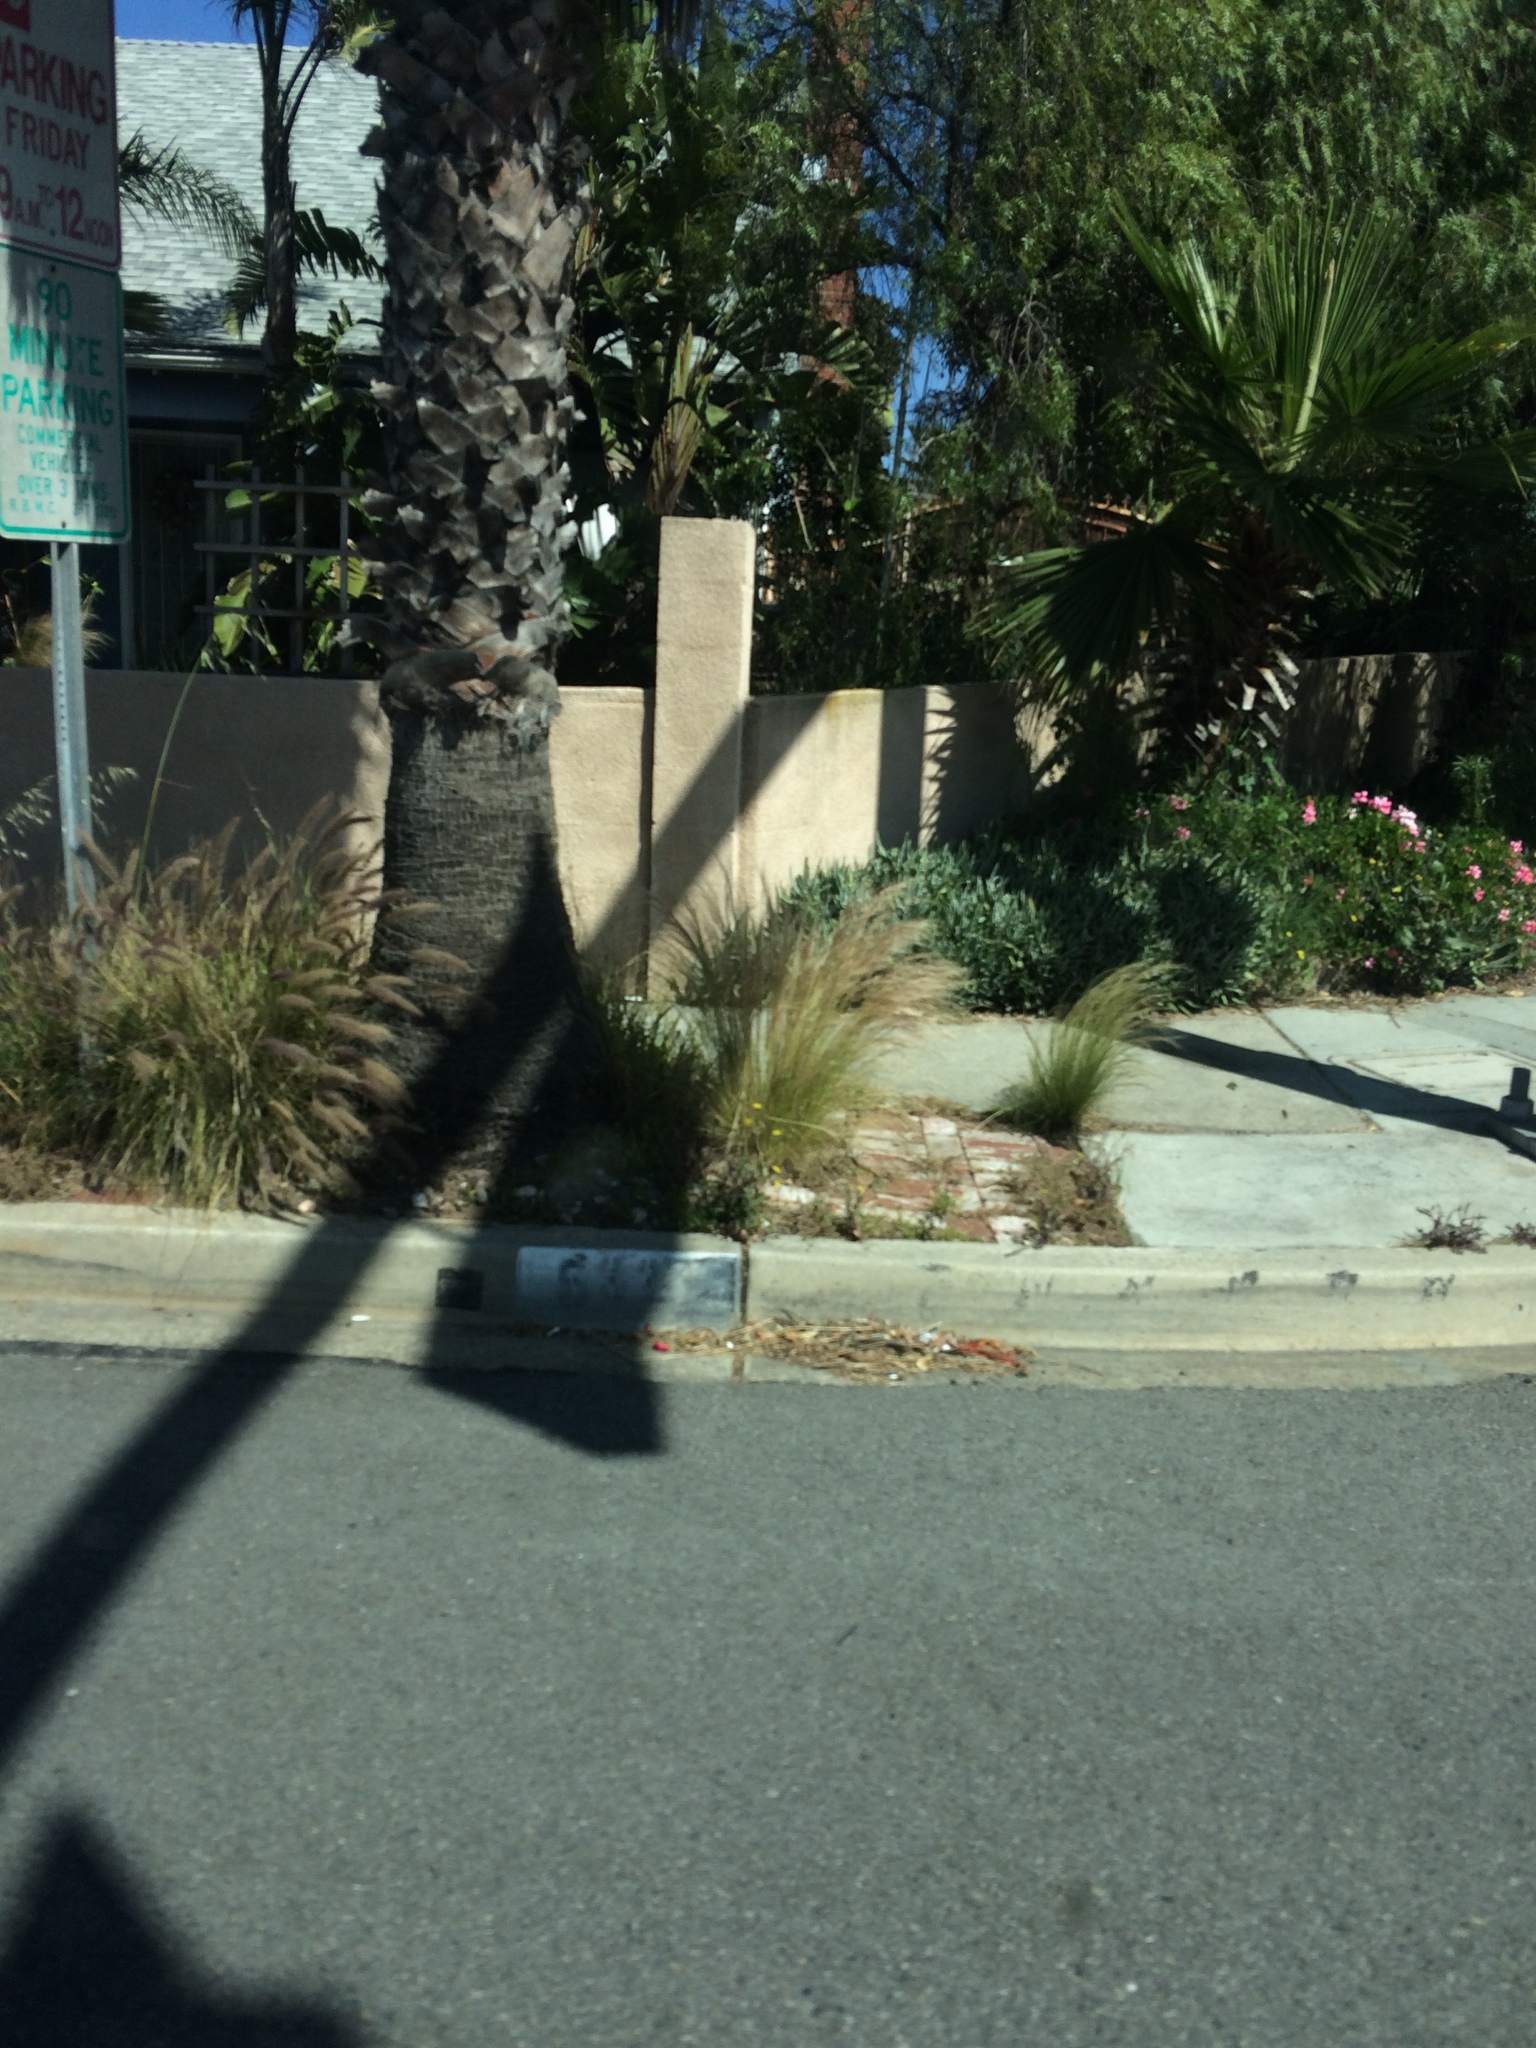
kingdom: Plantae
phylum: Tracheophyta
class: Liliopsida
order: Poales
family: Poaceae
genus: Nassella
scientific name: Nassella tenuissima
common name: Argentine needlegrass
